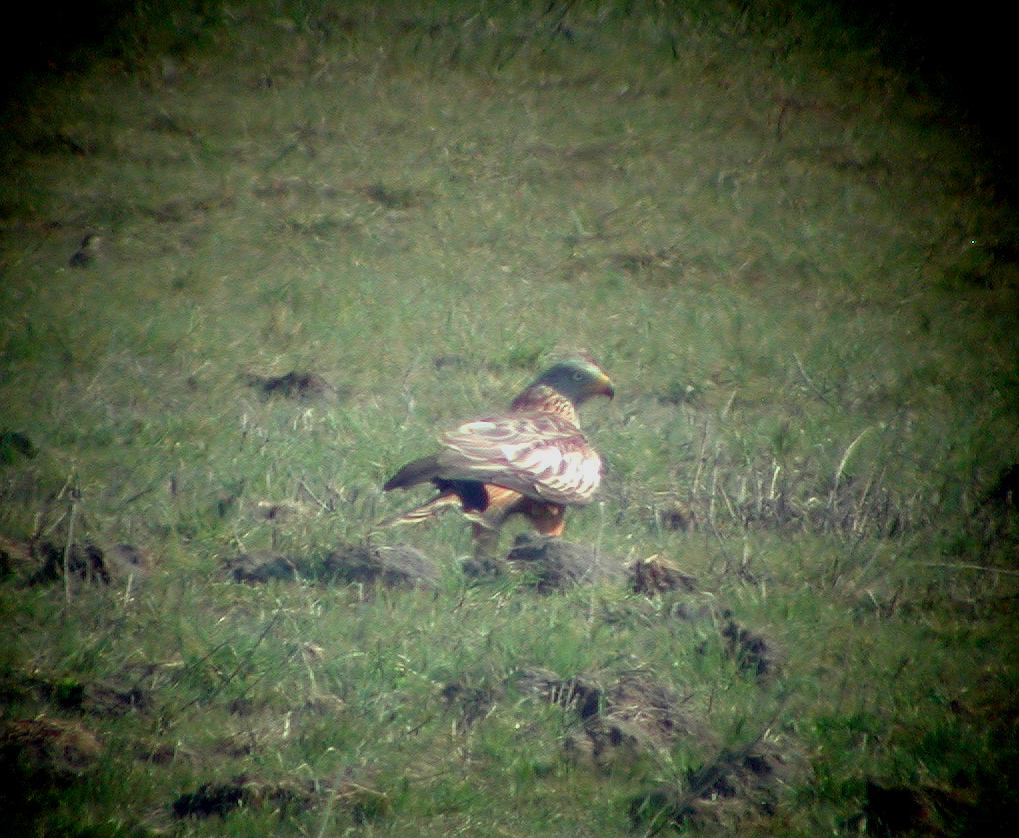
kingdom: Animalia
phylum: Chordata
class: Aves
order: Accipitriformes
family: Accipitridae
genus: Milvus
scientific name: Milvus milvus
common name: Red kite
